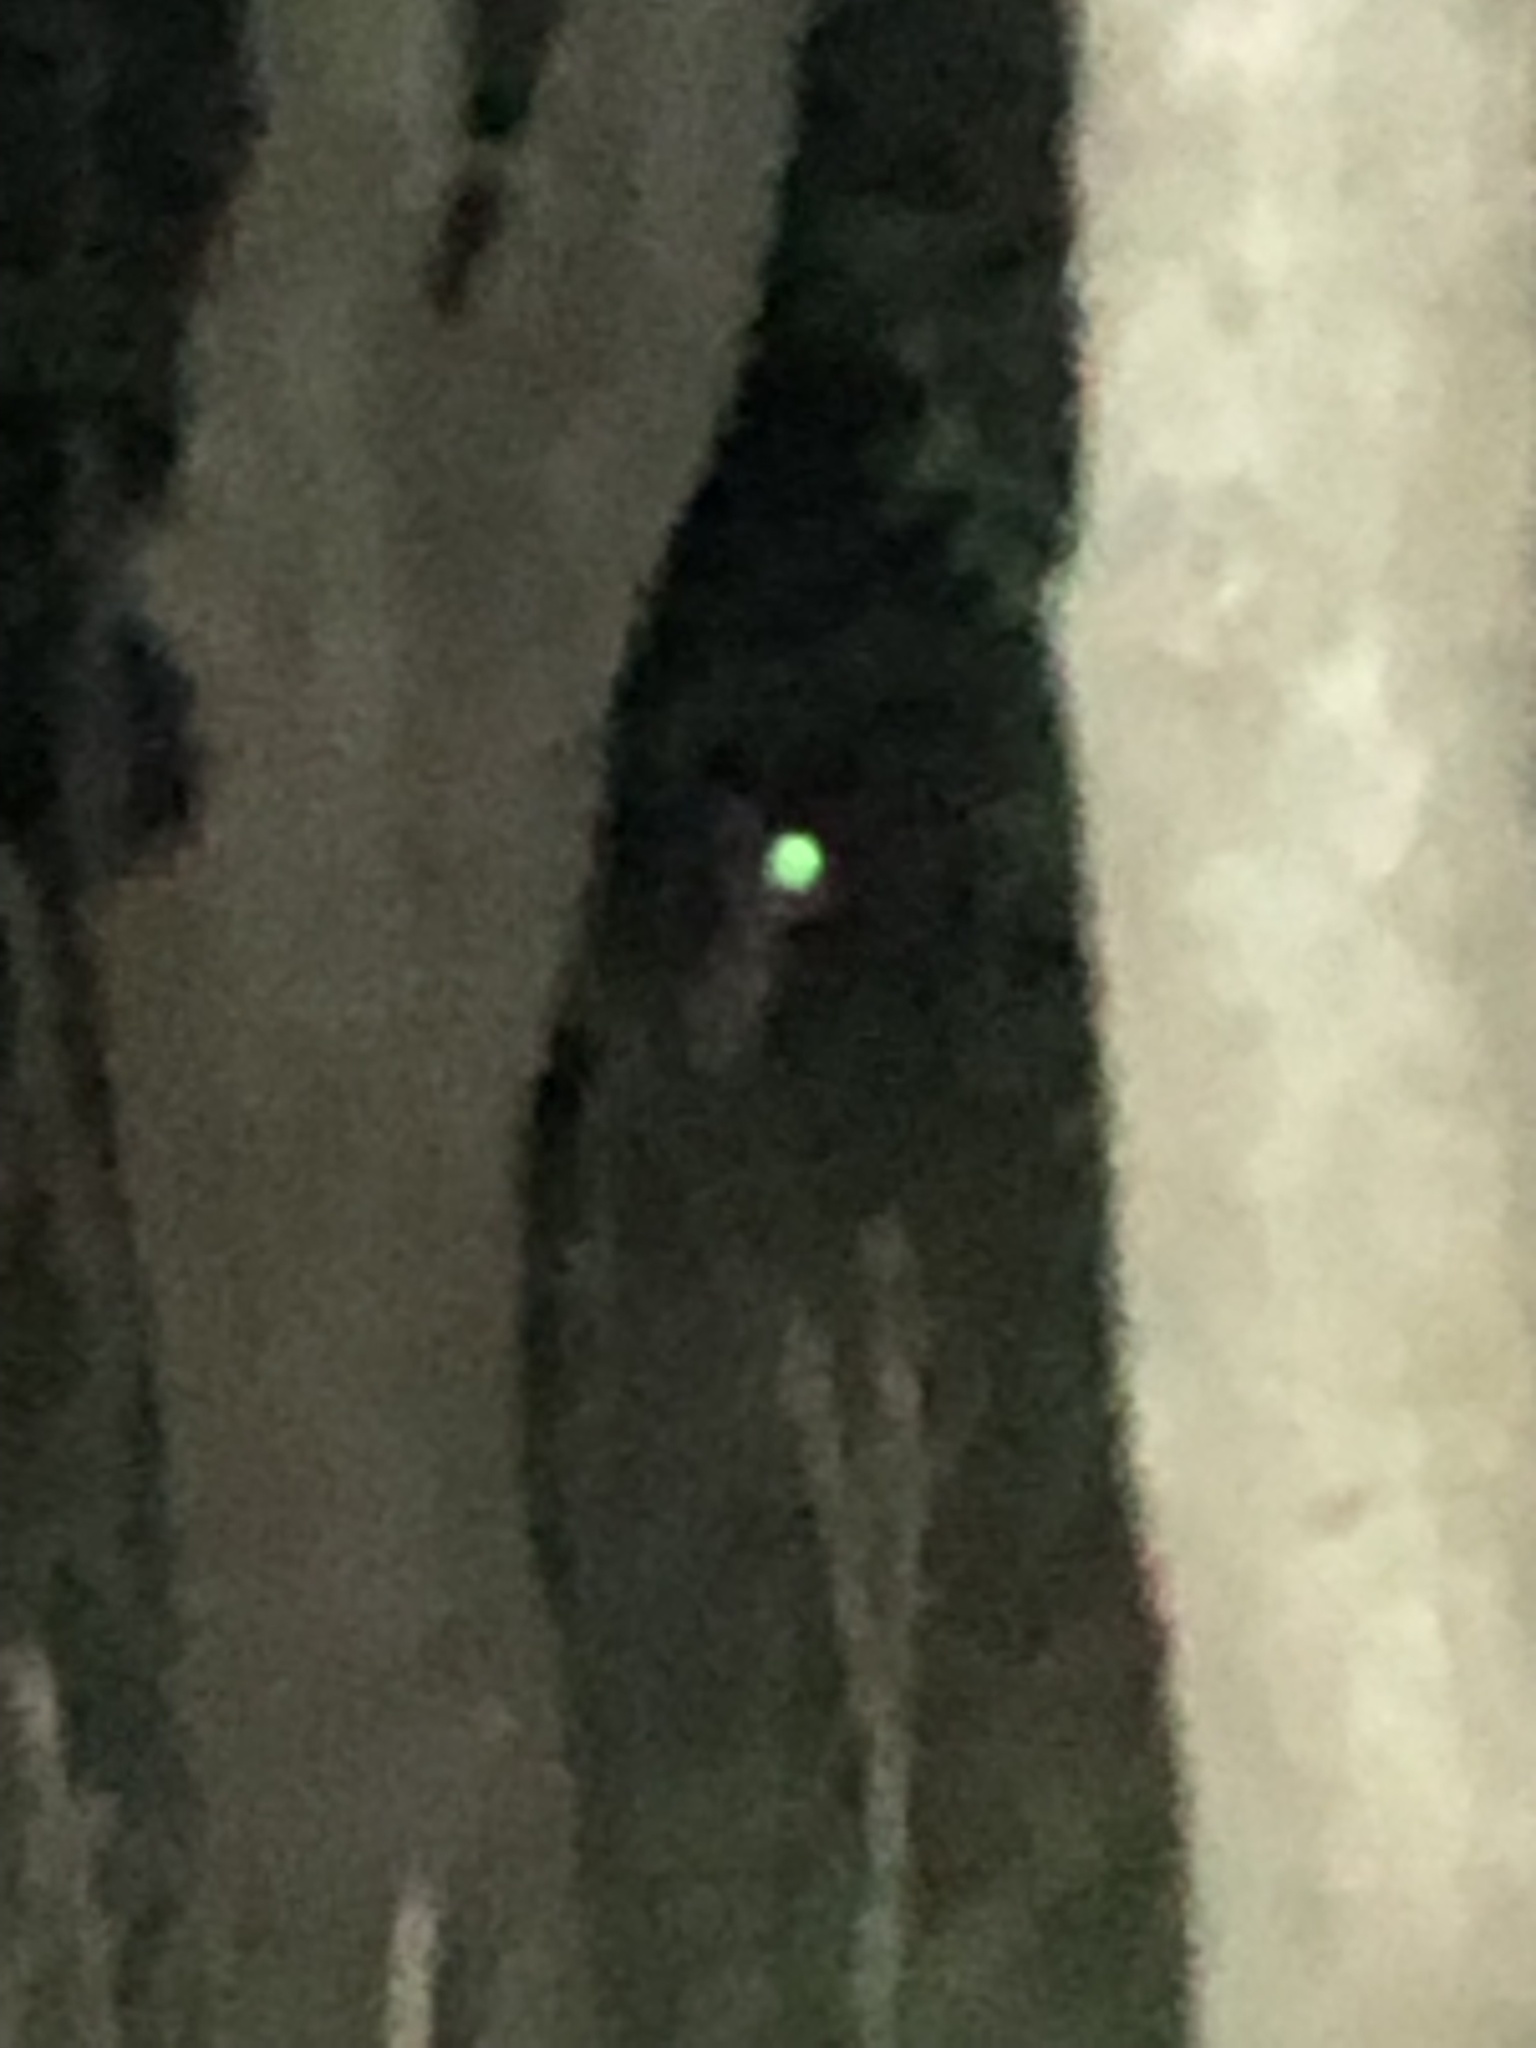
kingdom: Animalia
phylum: Chordata
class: Mammalia
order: Artiodactyla
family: Cervidae
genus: Odocoileus
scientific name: Odocoileus virginianus
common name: White-tailed deer
